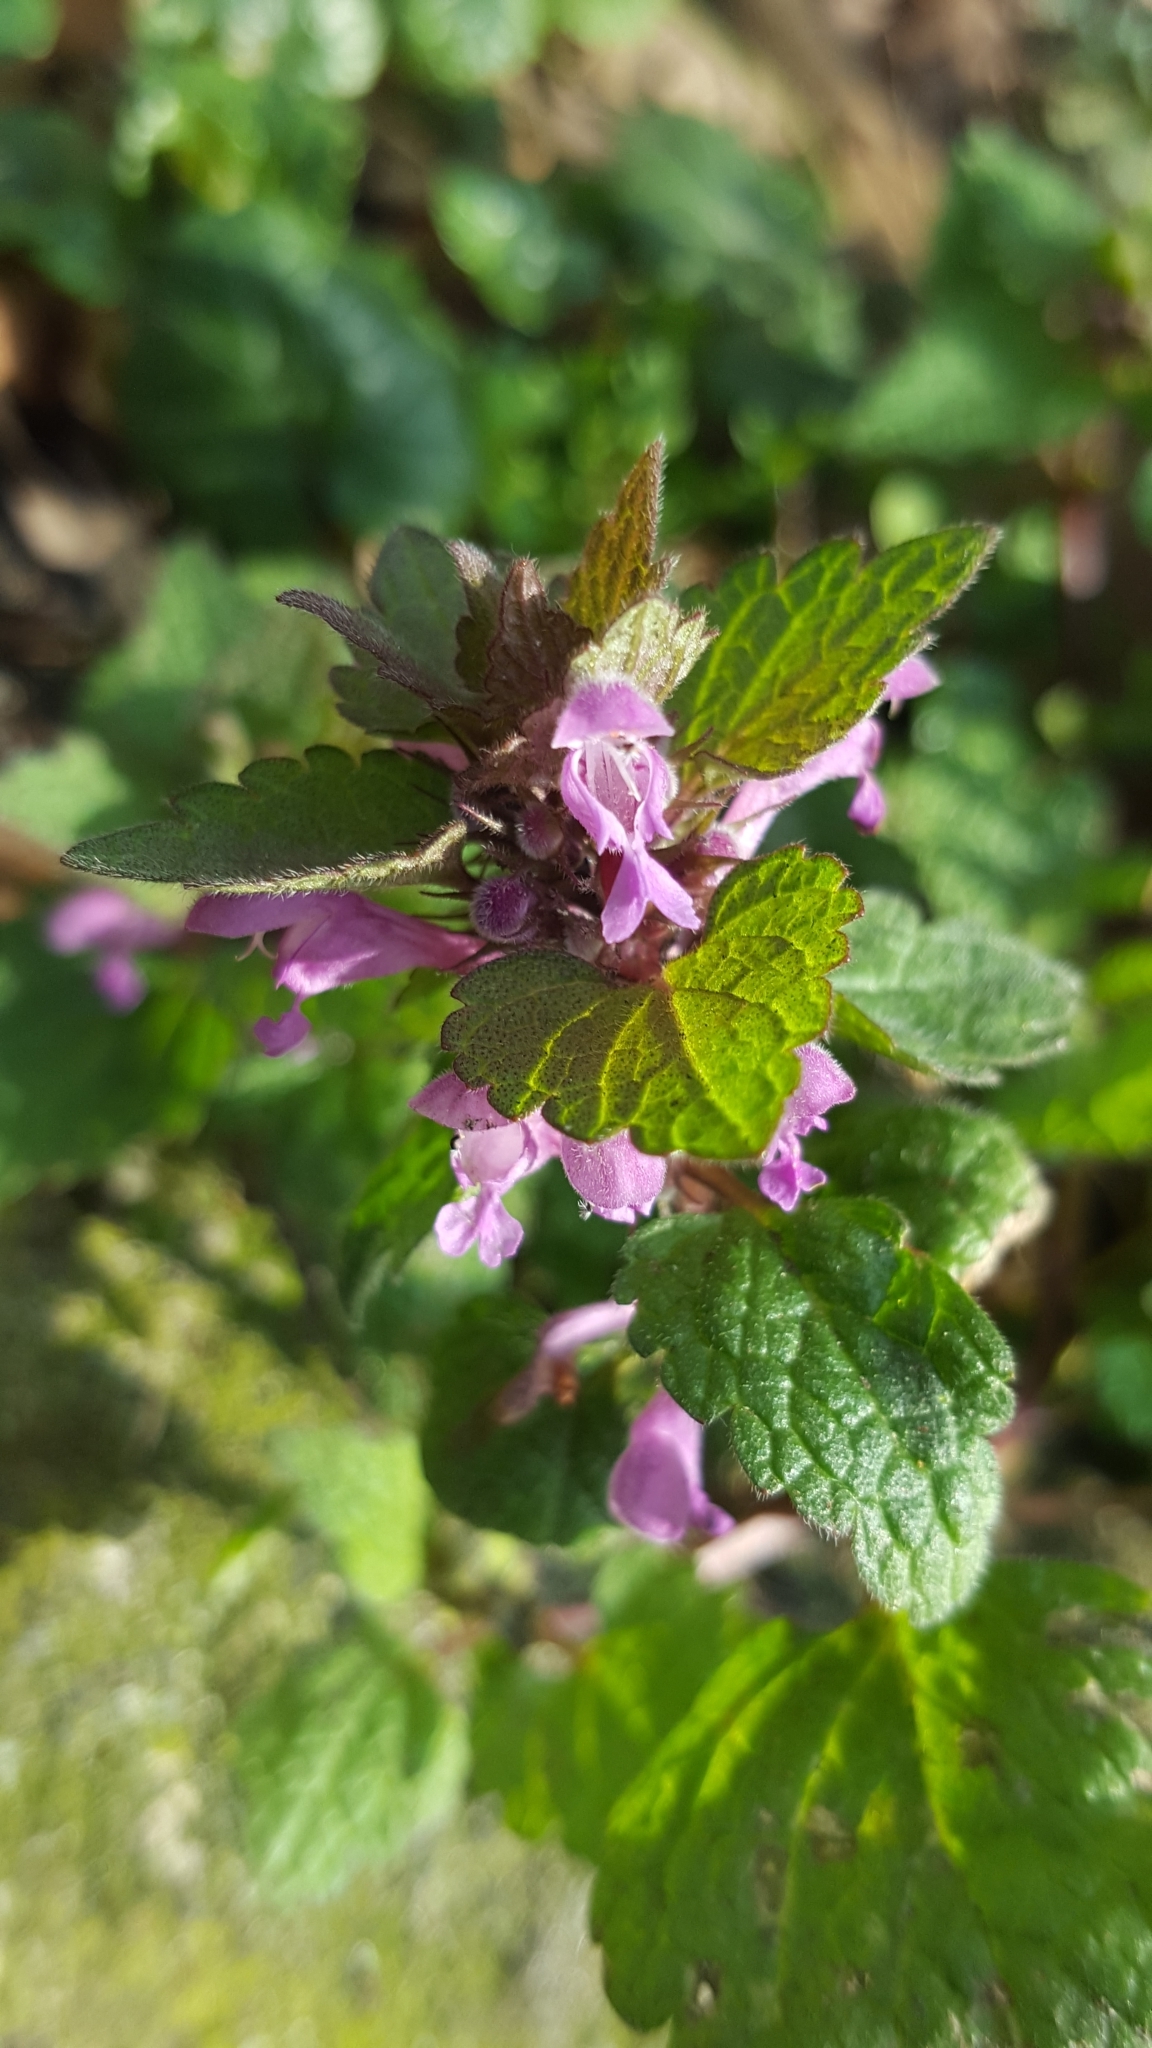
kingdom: Plantae
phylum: Tracheophyta
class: Magnoliopsida
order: Lamiales
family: Lamiaceae
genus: Lamium
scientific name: Lamium purpureum
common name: Red dead-nettle
